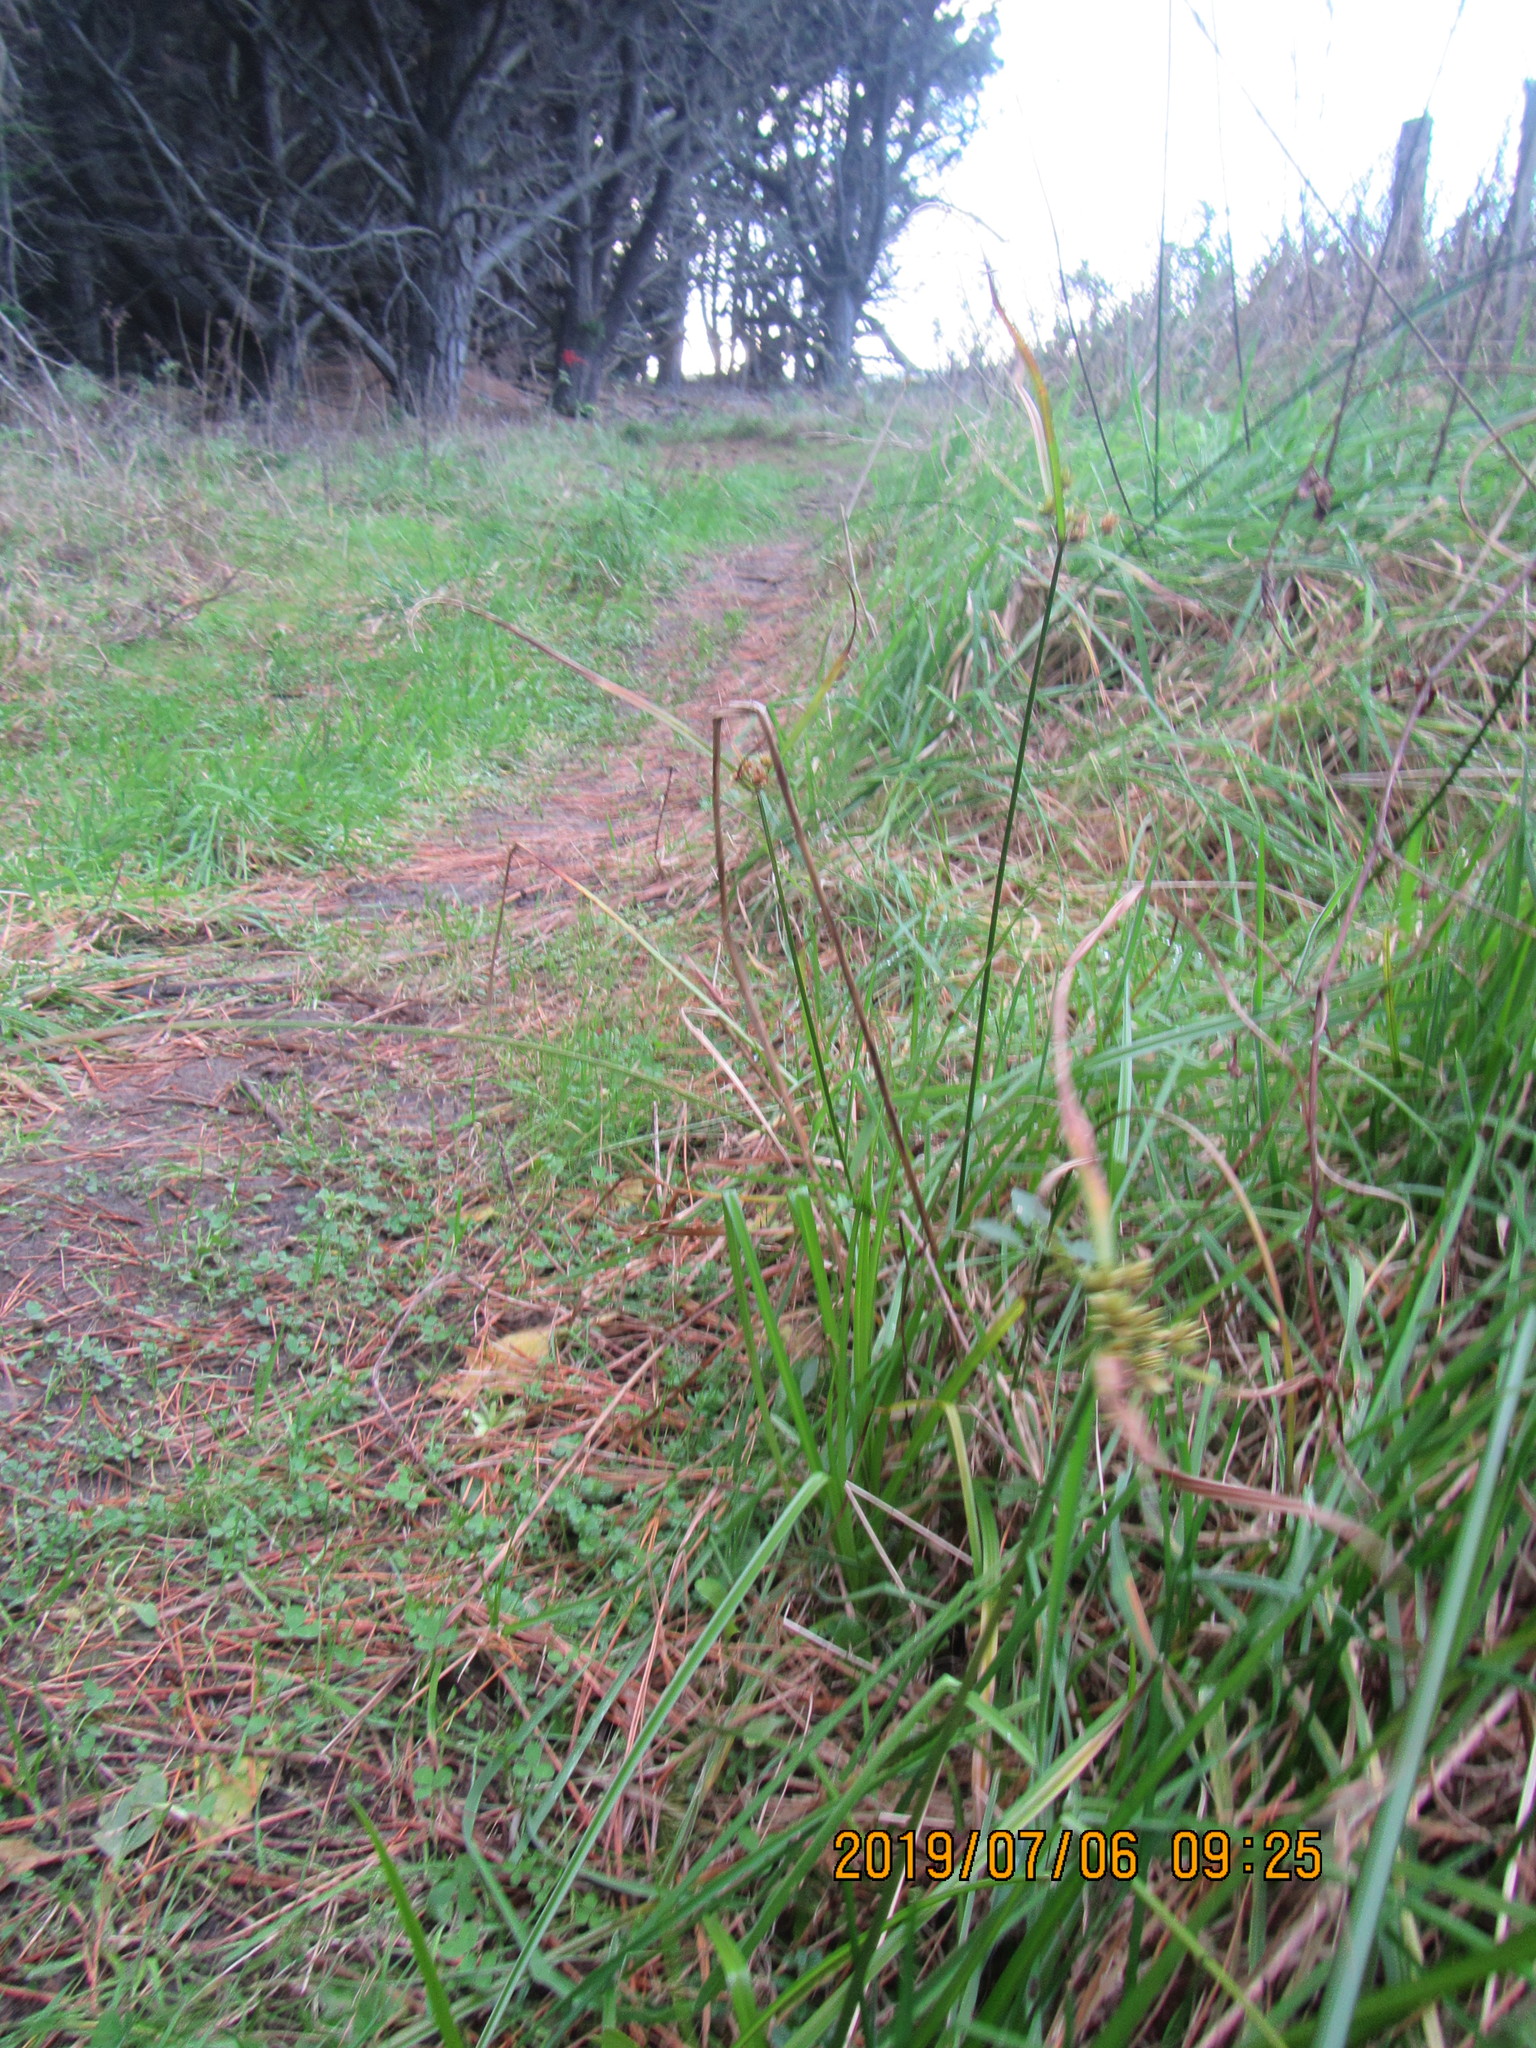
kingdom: Plantae
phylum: Tracheophyta
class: Liliopsida
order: Poales
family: Cyperaceae
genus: Cyperus
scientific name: Cyperus eragrostis
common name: Tall flatsedge
